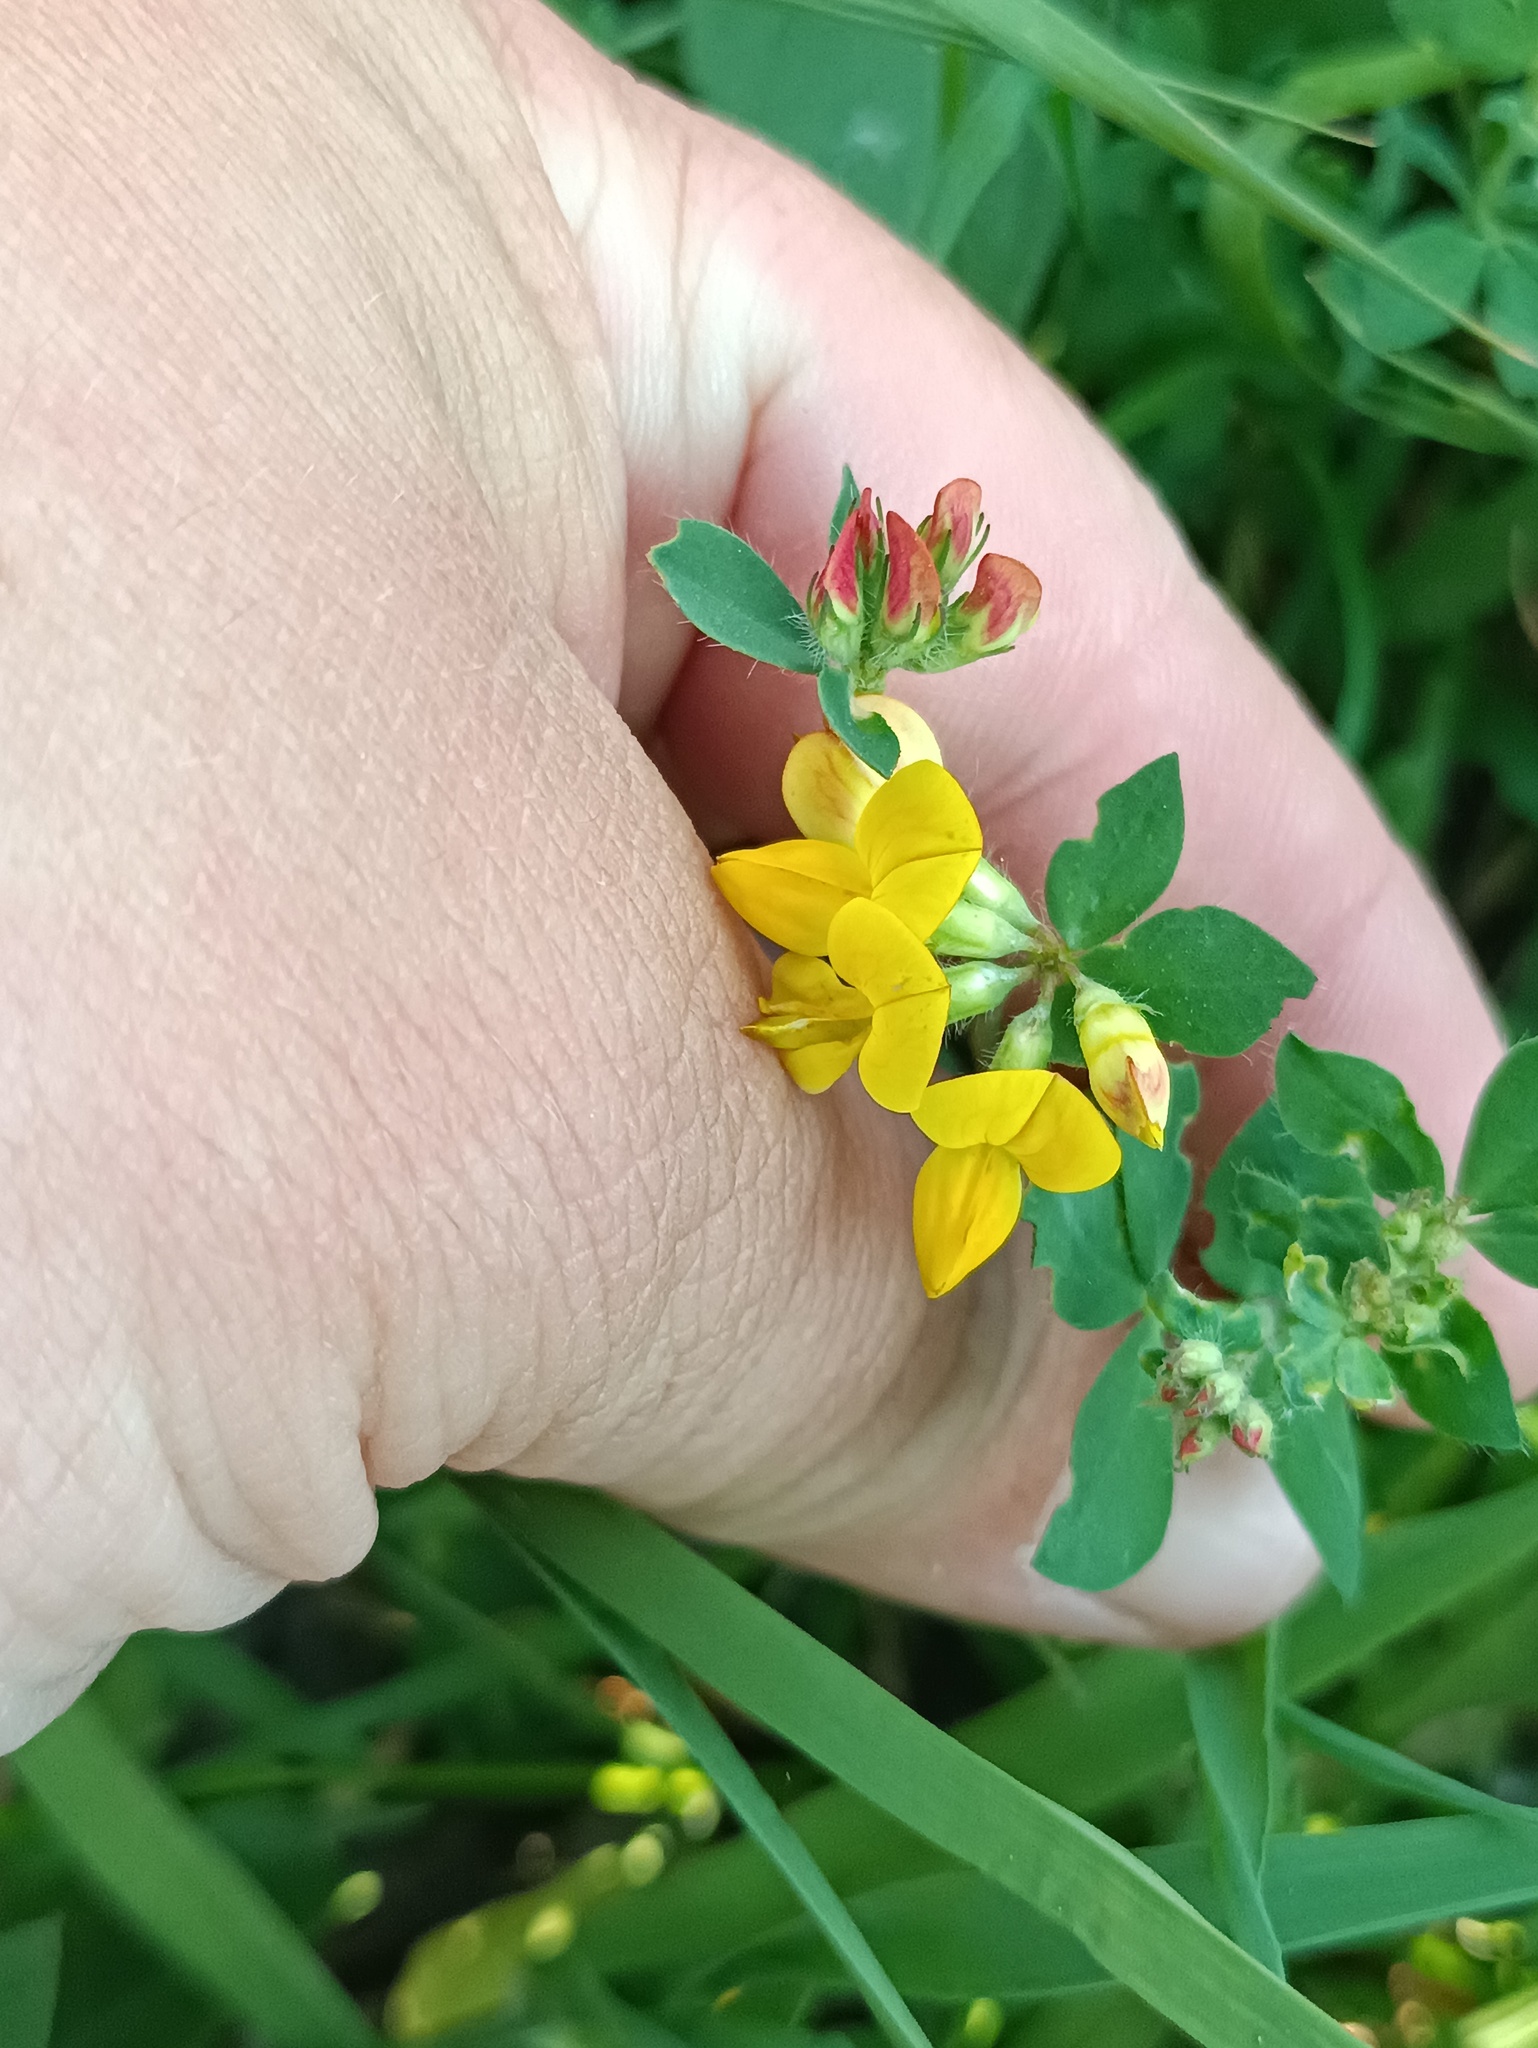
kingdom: Plantae
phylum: Tracheophyta
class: Magnoliopsida
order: Fabales
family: Fabaceae
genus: Lotus
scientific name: Lotus corniculatus
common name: Common bird's-foot-trefoil
